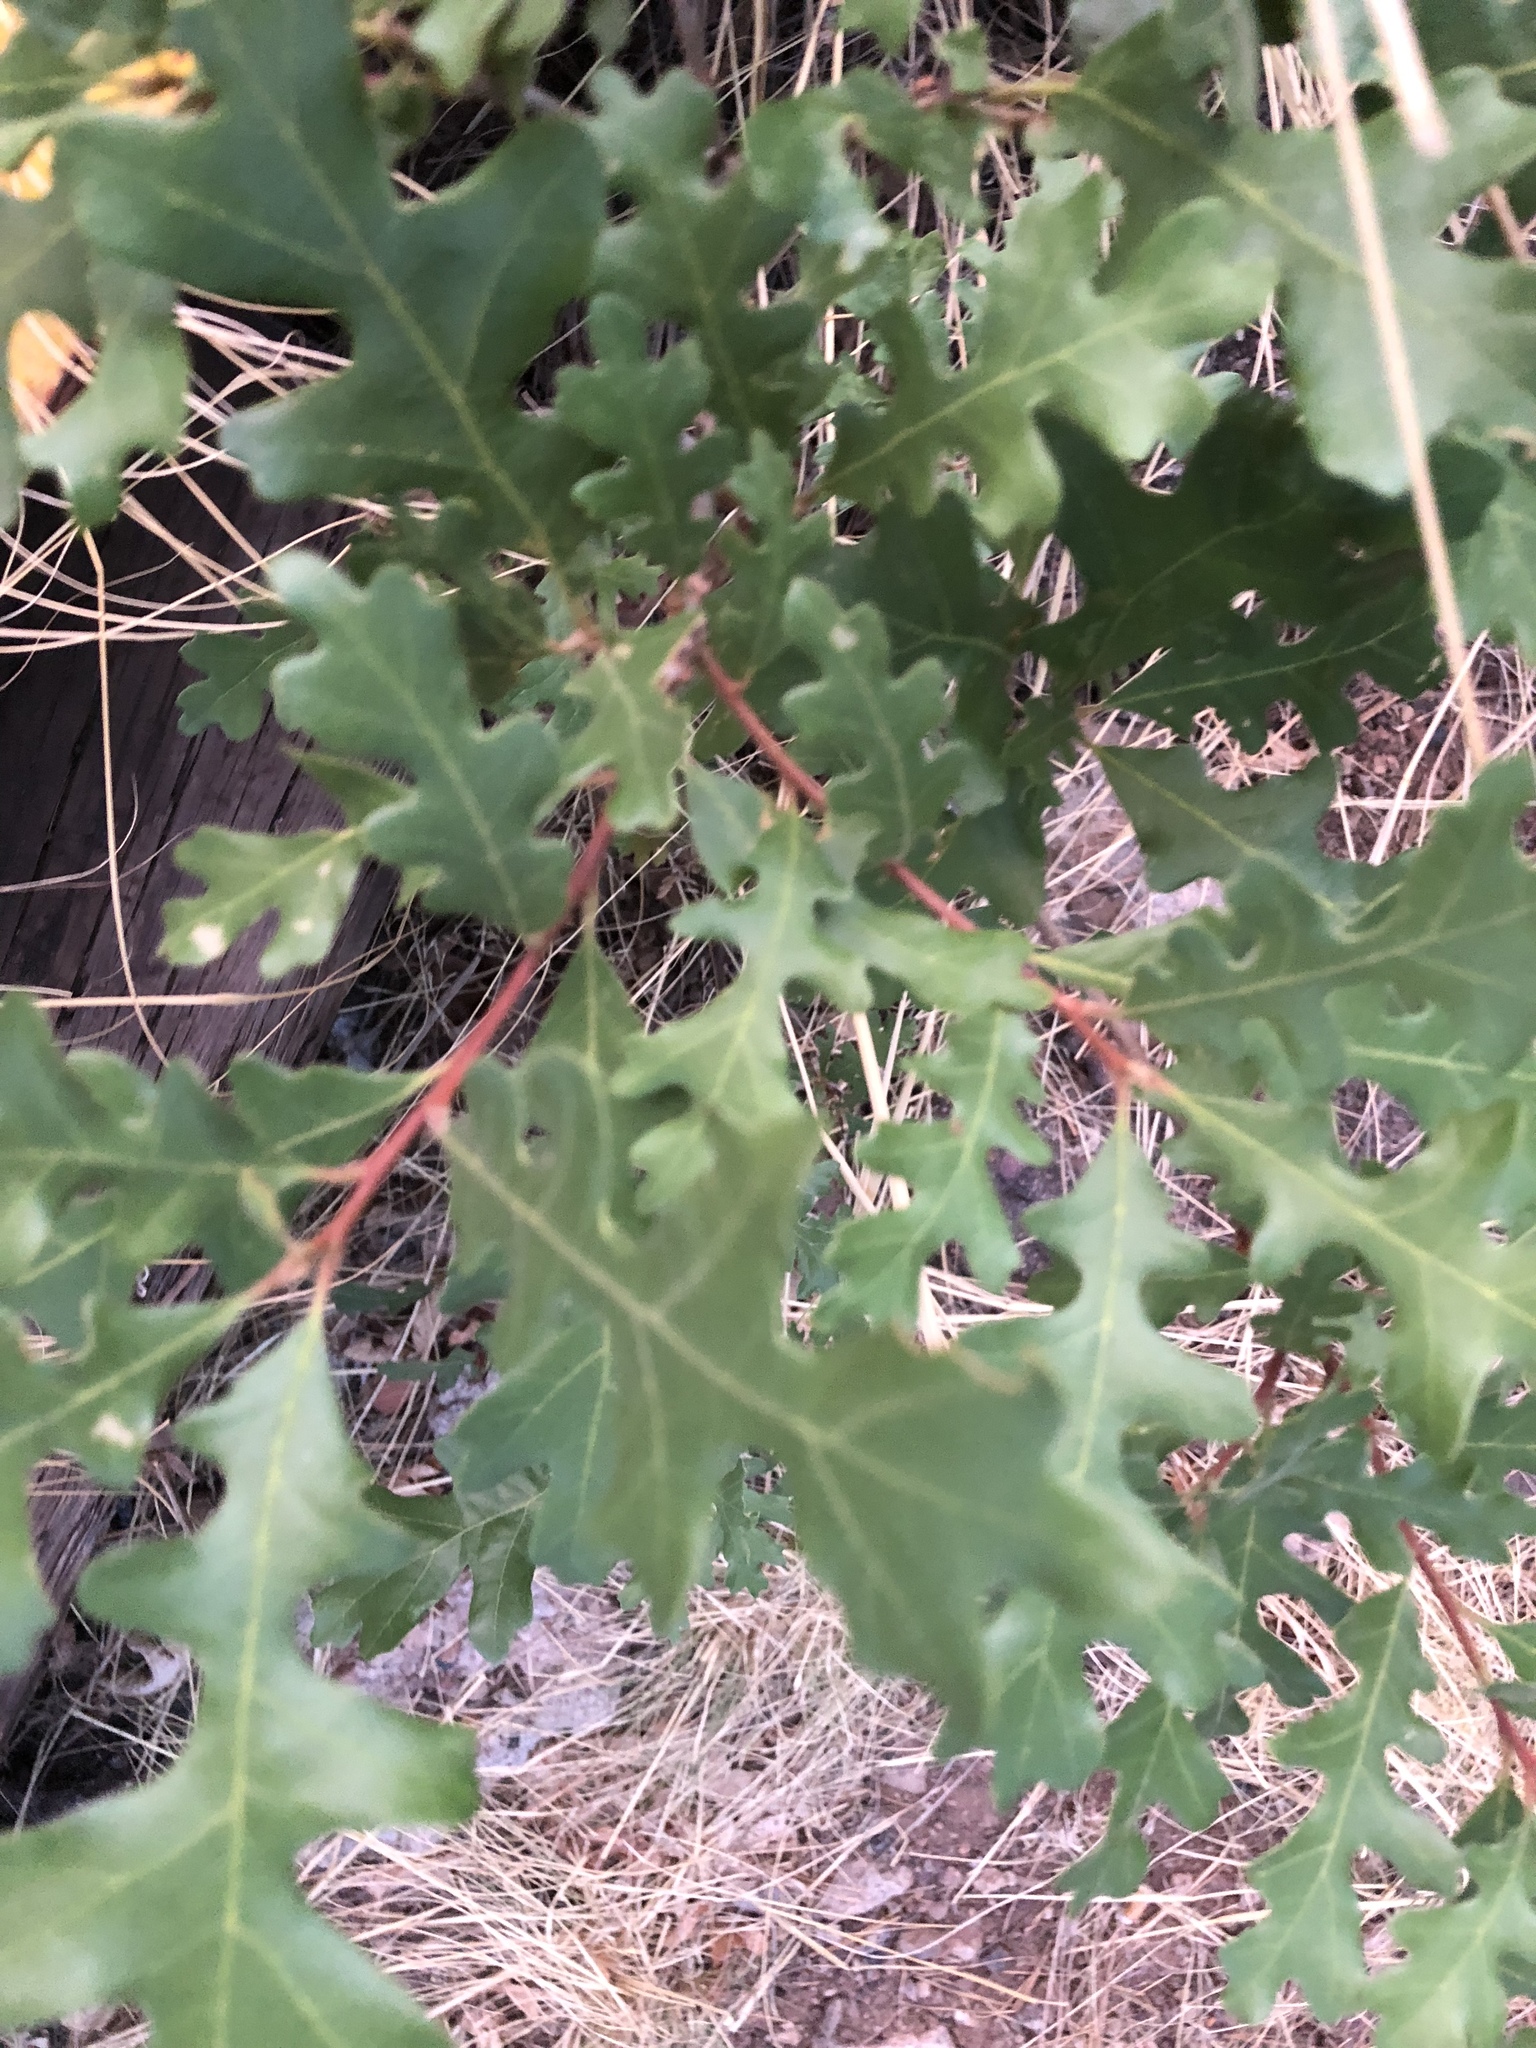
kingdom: Plantae
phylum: Tracheophyta
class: Magnoliopsida
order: Fagales
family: Fagaceae
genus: Quercus
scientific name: Quercus gambelii
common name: Gambel oak
